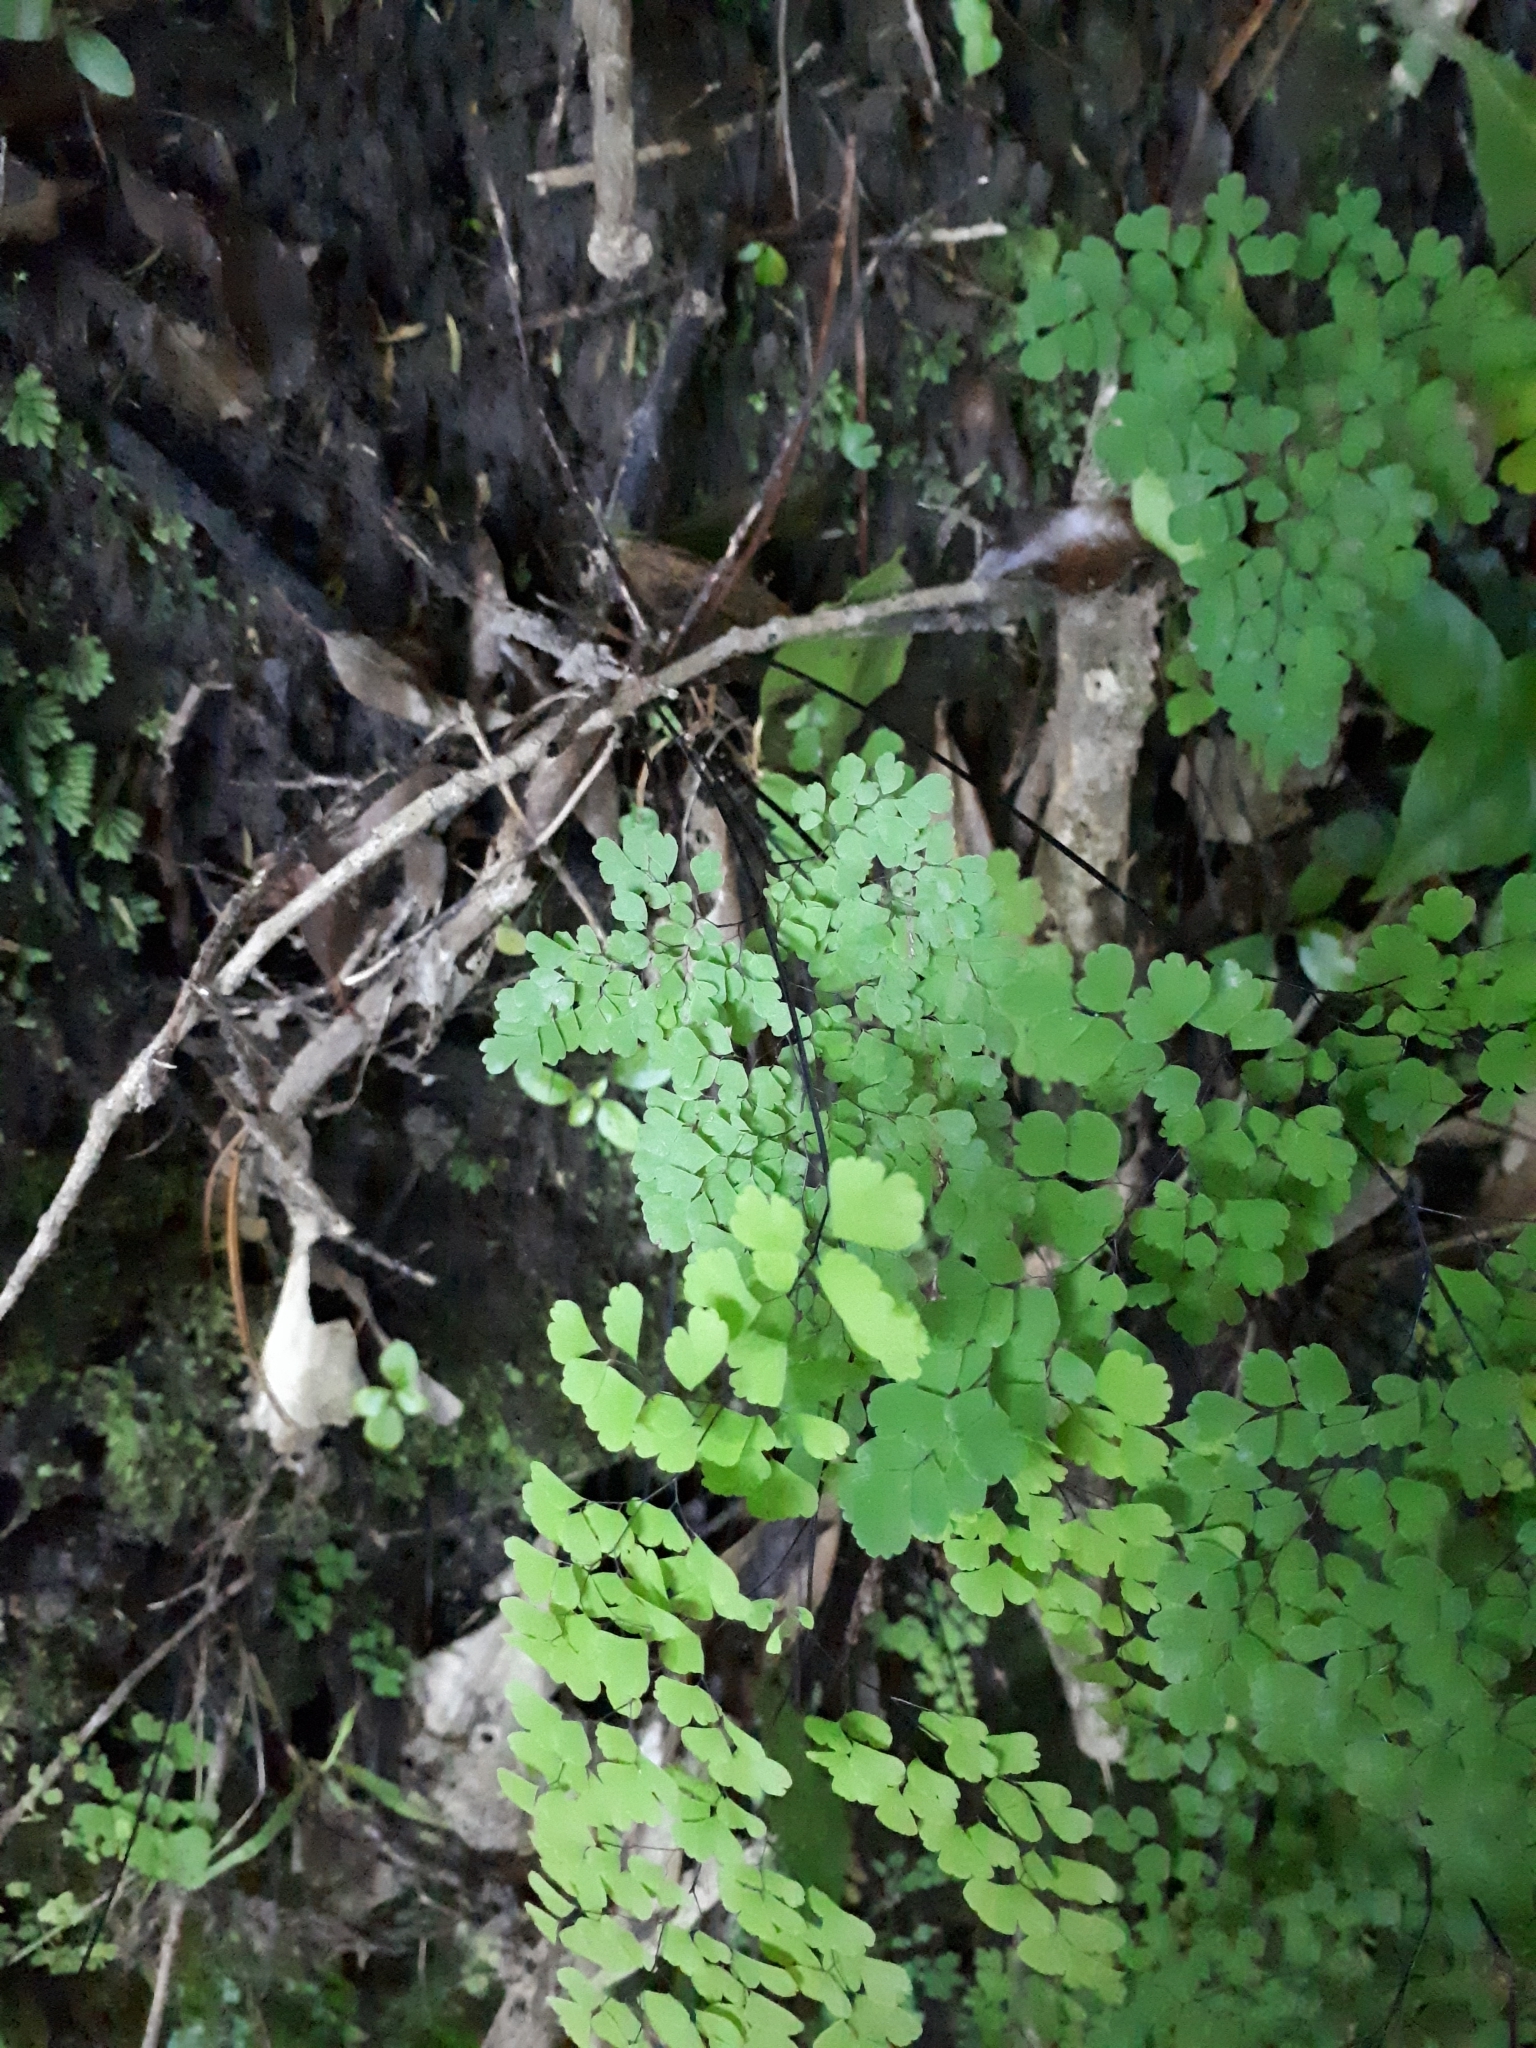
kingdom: Plantae
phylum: Tracheophyta
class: Polypodiopsida
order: Polypodiales
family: Pteridaceae
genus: Adiantum
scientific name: Adiantum raddianum
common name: Delta maidenhair fern
